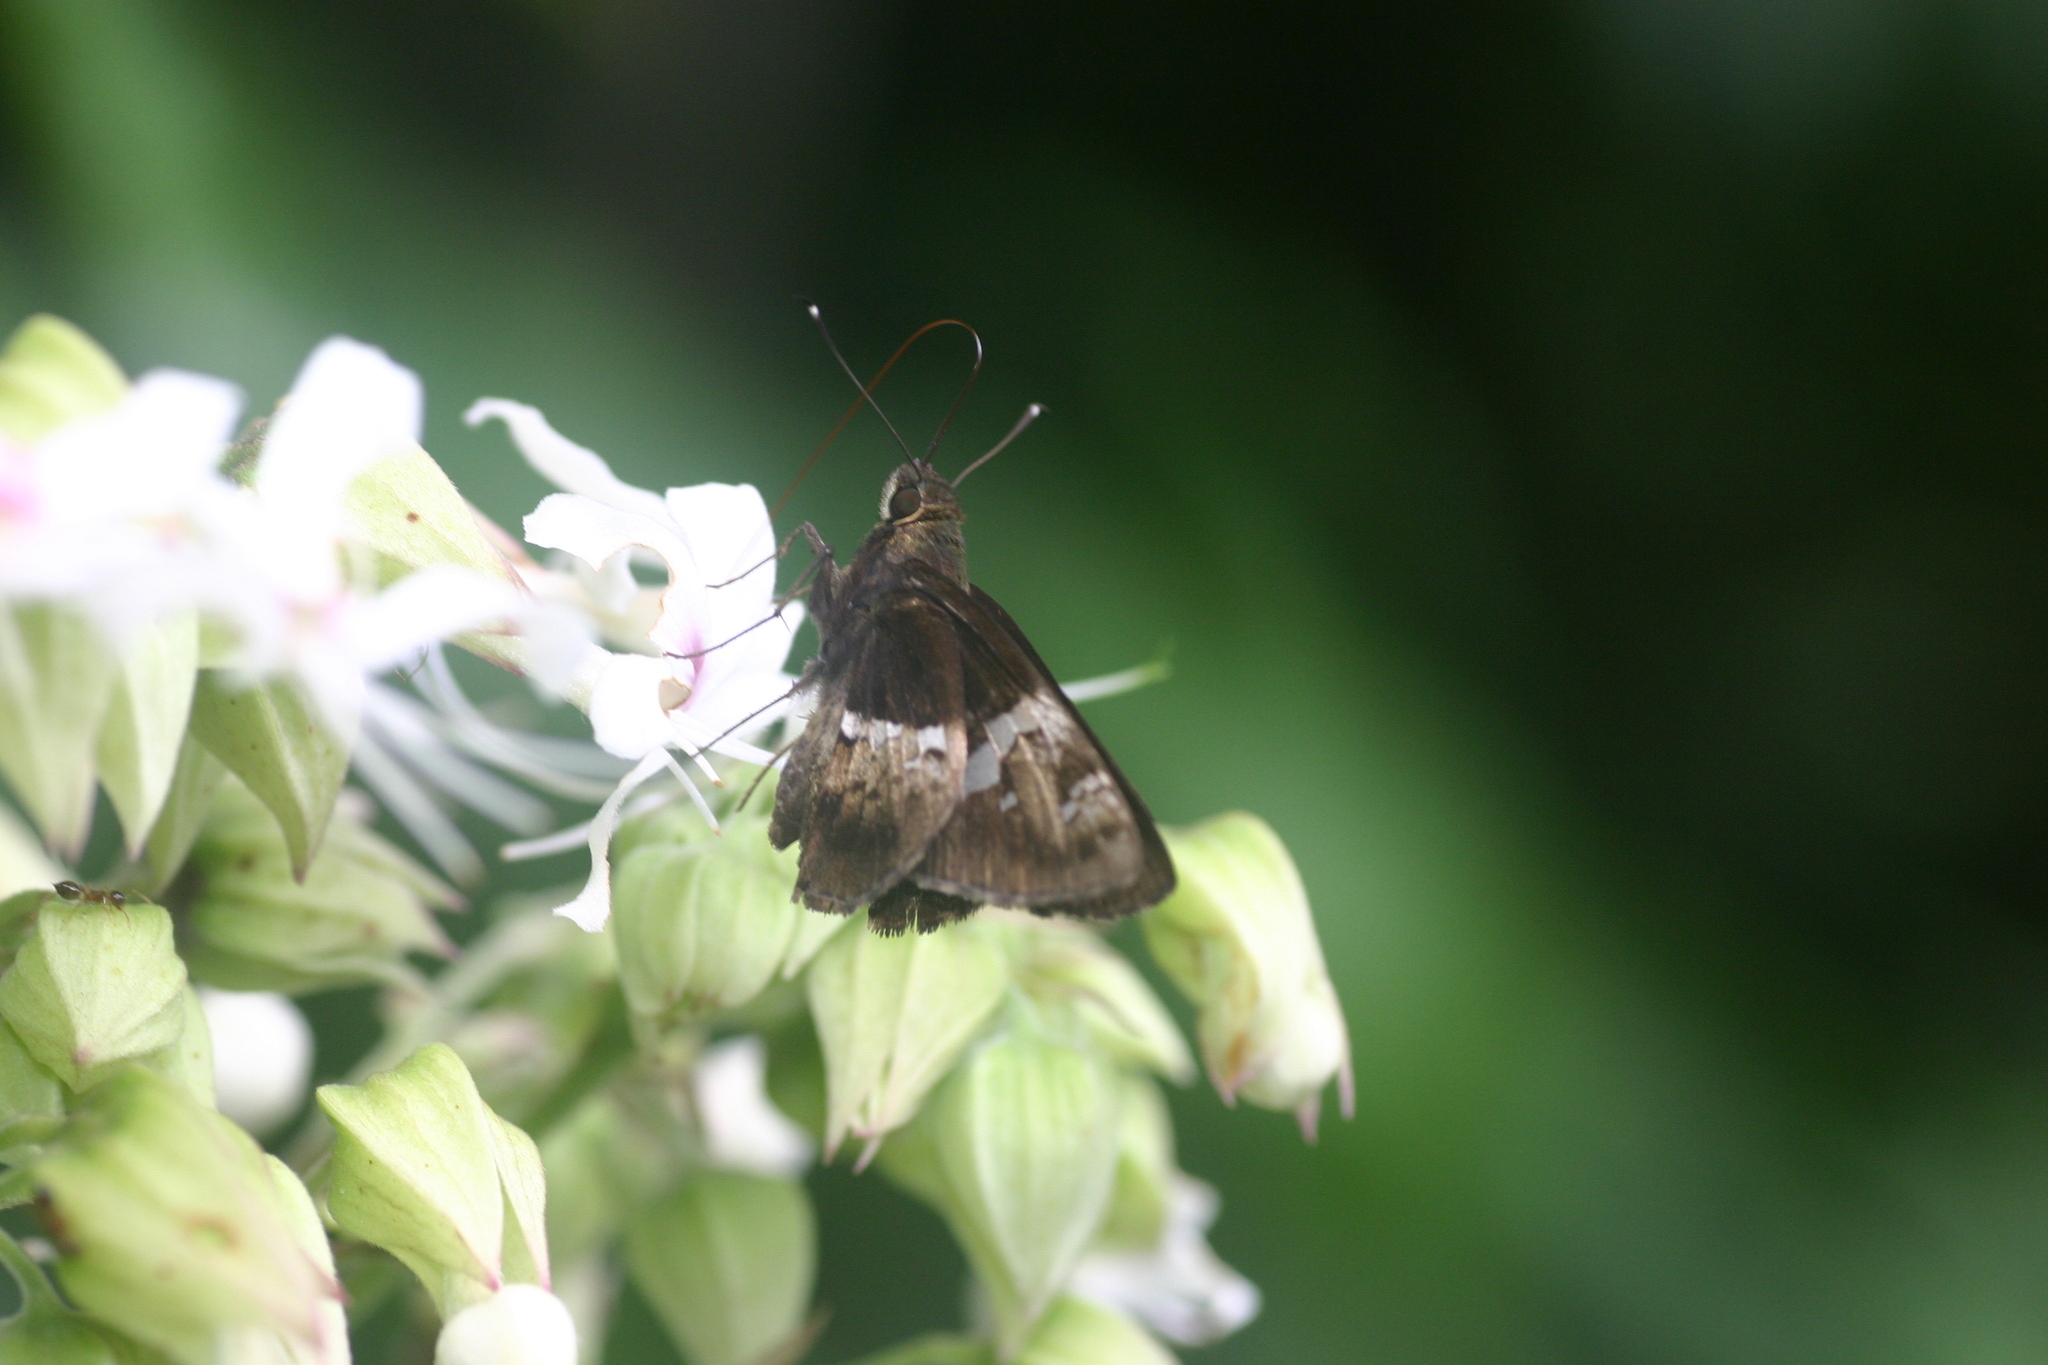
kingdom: Animalia
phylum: Arthropoda
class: Insecta
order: Lepidoptera
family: Hesperiidae
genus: Hyarotis
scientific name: Hyarotis adrastus
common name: Tree flitter
